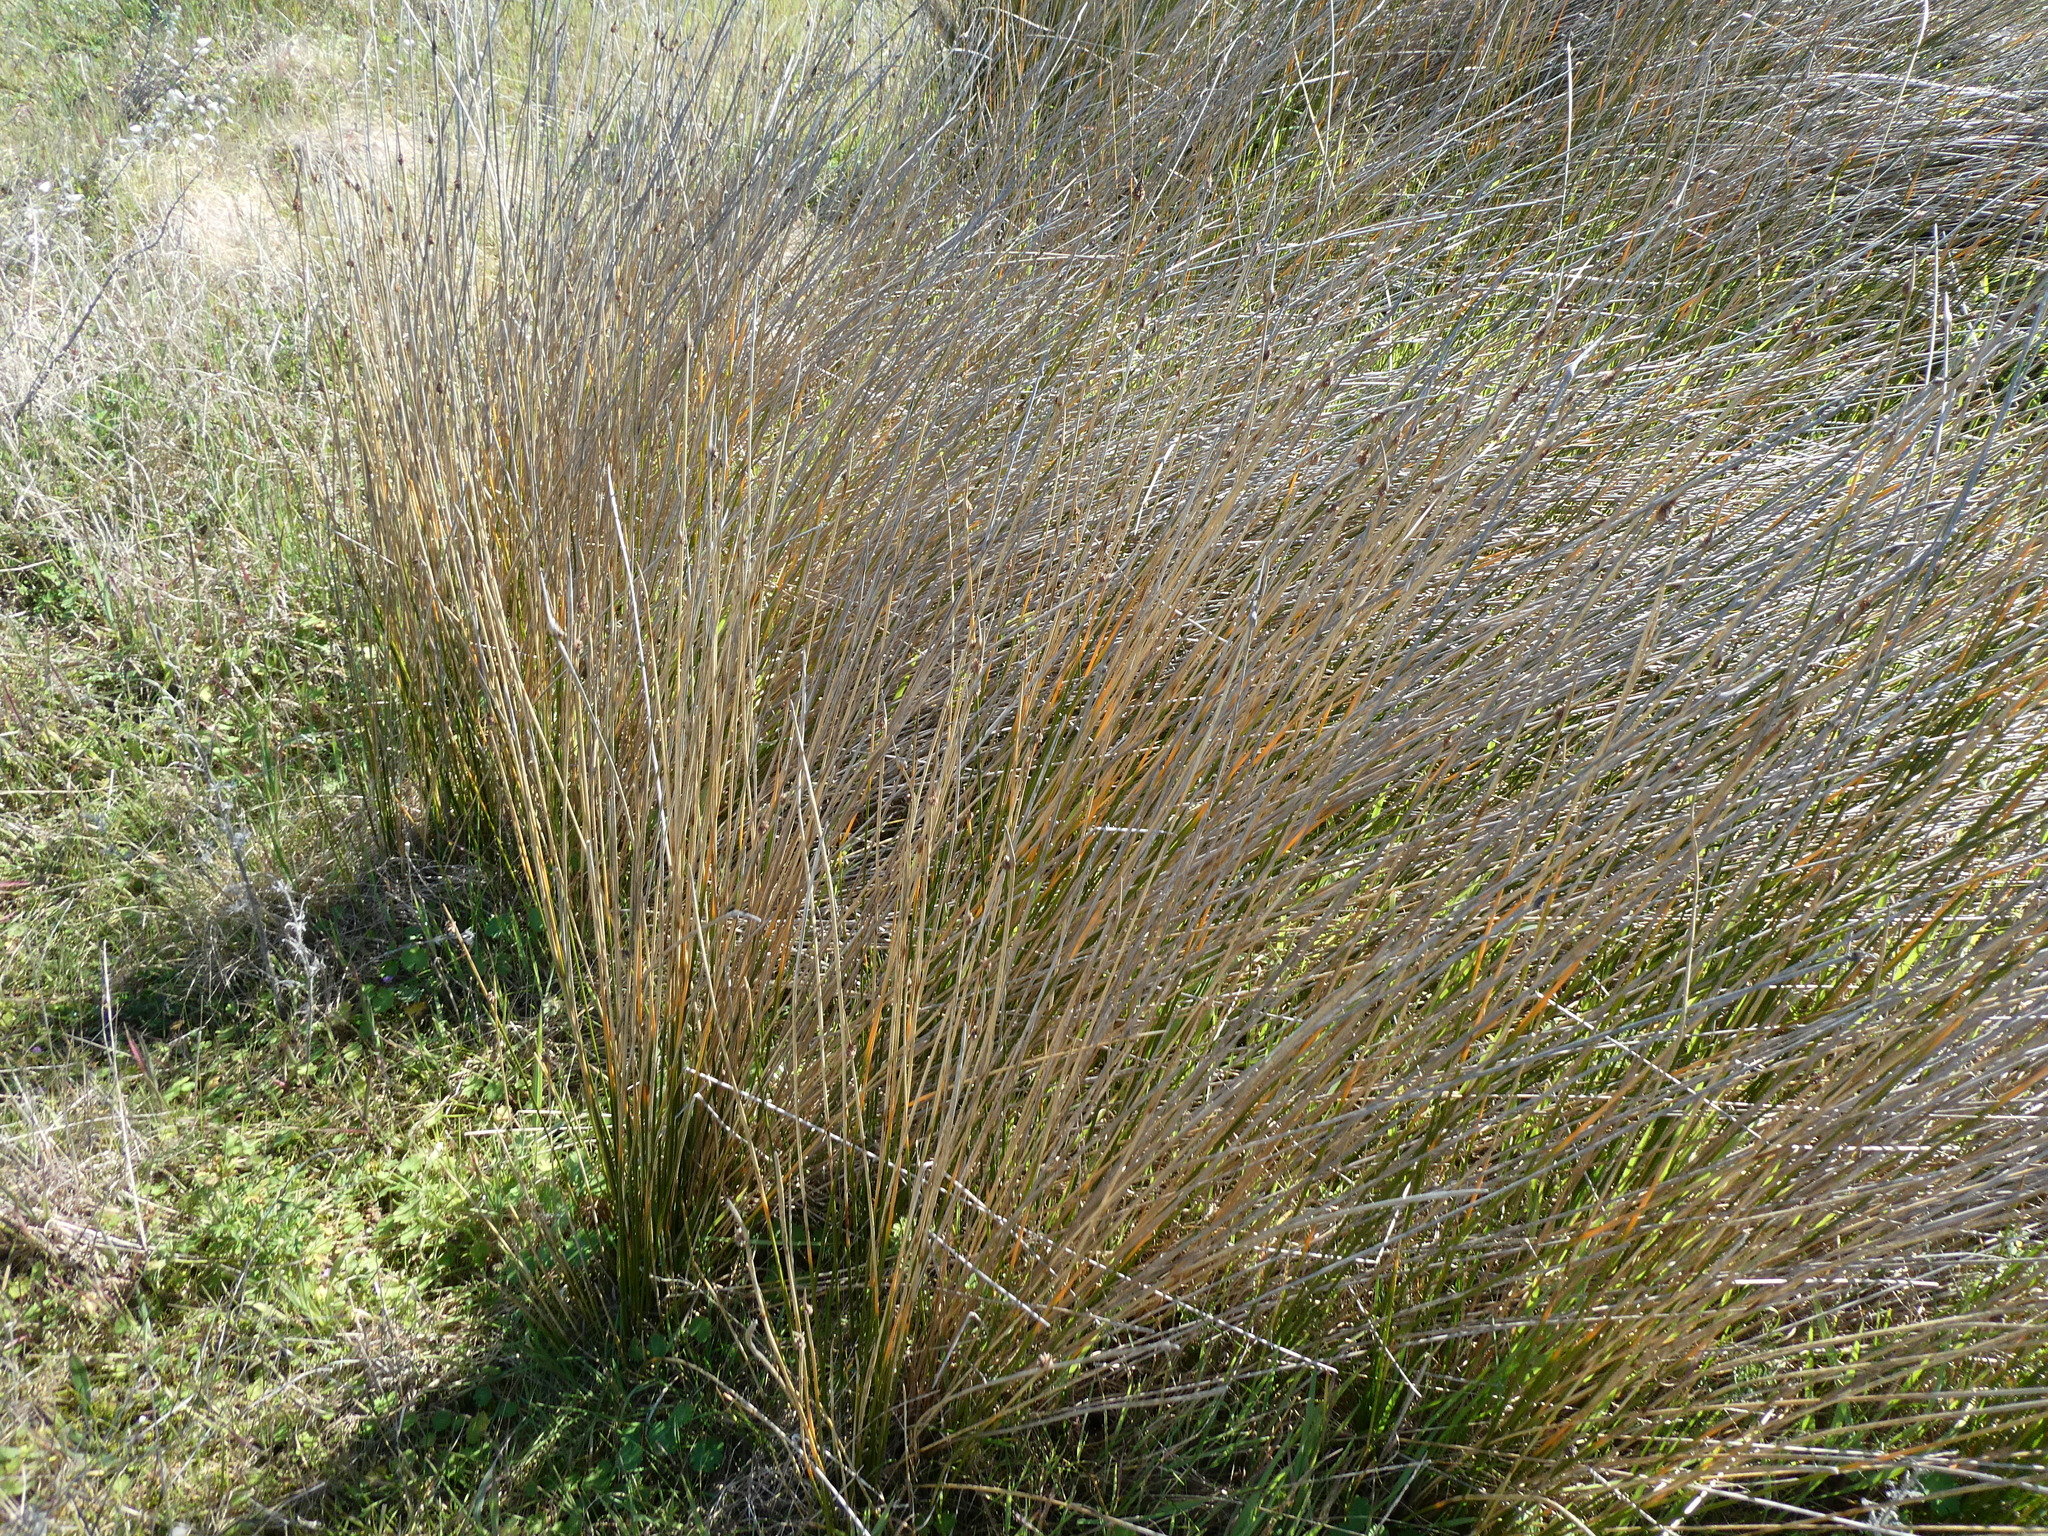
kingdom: Plantae
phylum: Tracheophyta
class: Liliopsida
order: Poales
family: Cyperaceae
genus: Ficinia
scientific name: Ficinia nodosa
